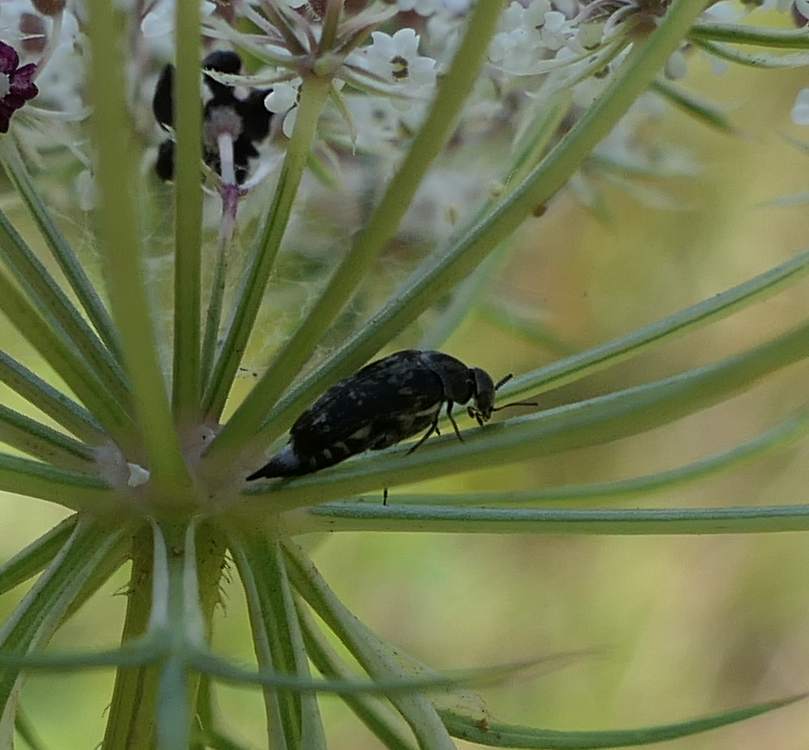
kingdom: Animalia
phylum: Arthropoda
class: Insecta
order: Coleoptera
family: Mordellidae
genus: Mordella
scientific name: Mordella marginata
